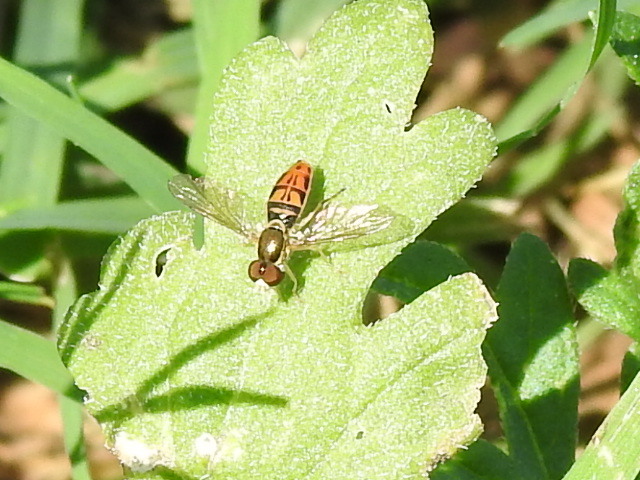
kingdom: Animalia
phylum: Arthropoda
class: Insecta
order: Diptera
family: Syrphidae
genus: Toxomerus
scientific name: Toxomerus marginatus
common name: Syrphid fly
